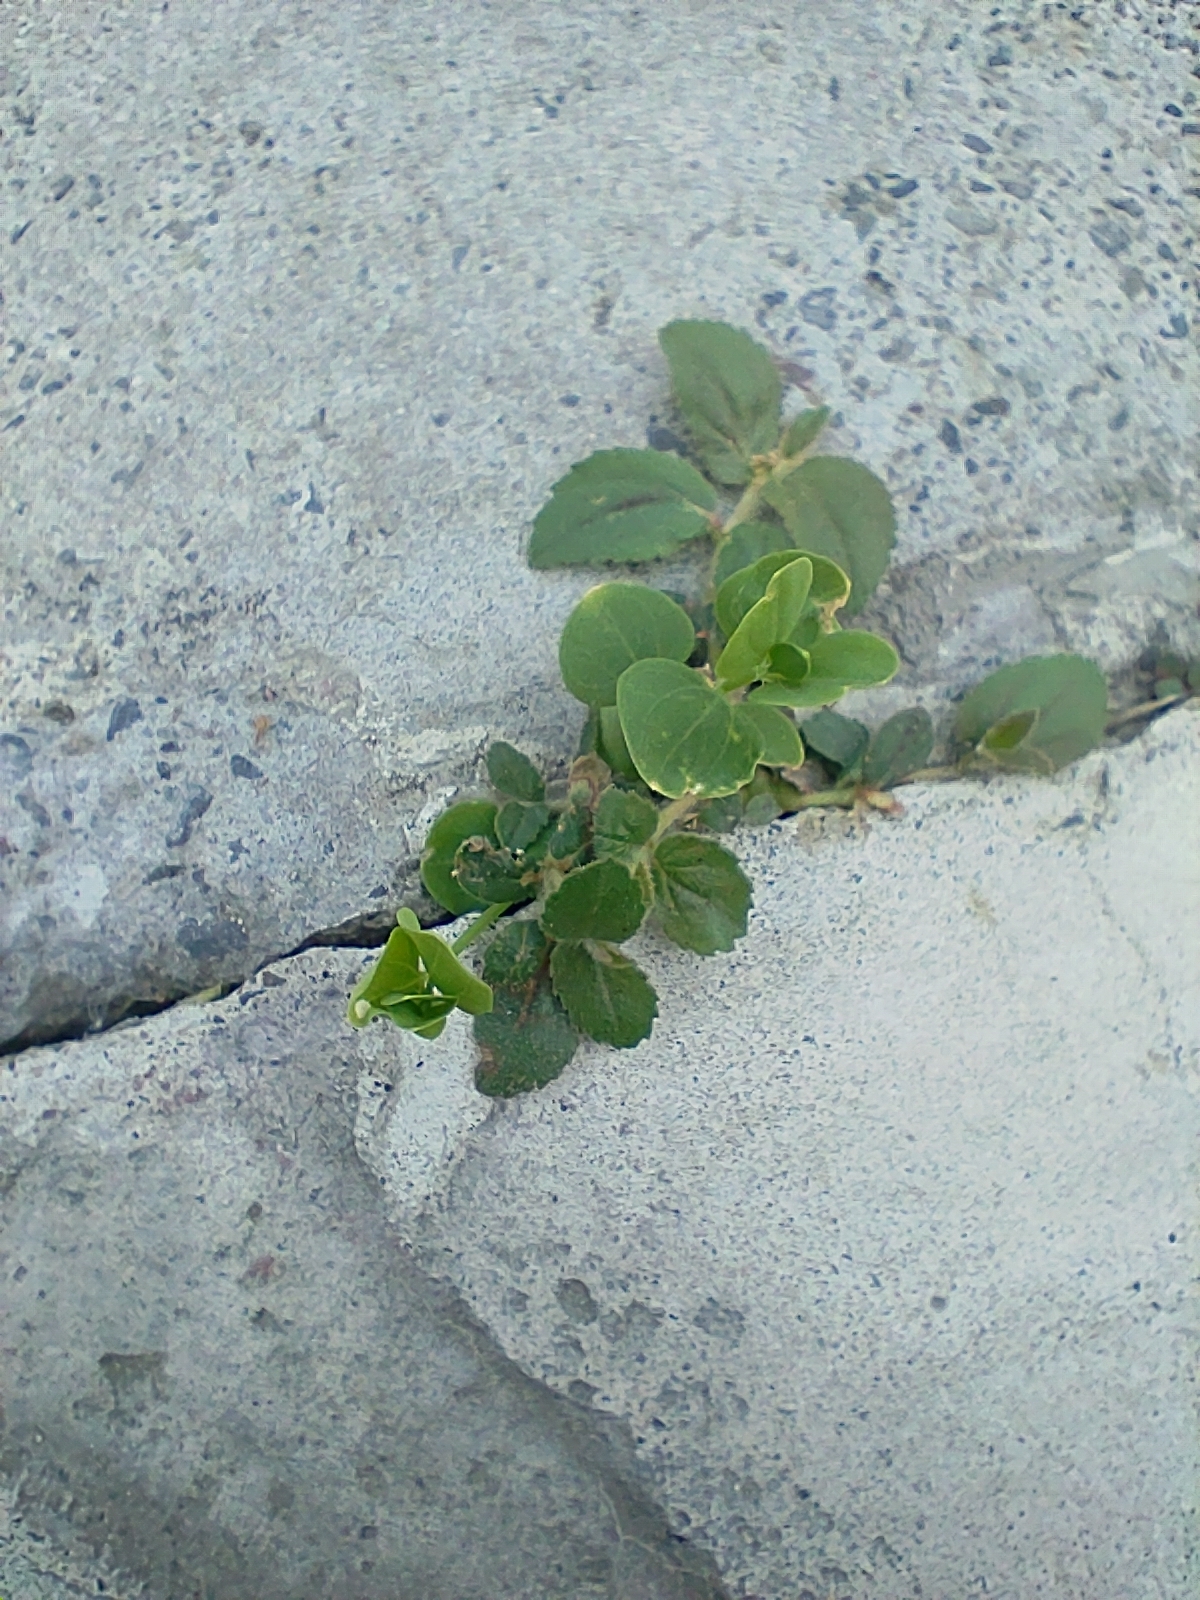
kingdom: Plantae
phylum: Tracheophyta
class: Magnoliopsida
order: Malpighiales
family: Euphorbiaceae
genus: Euphorbia
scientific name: Euphorbia hirta
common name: Pillpod sandmat
